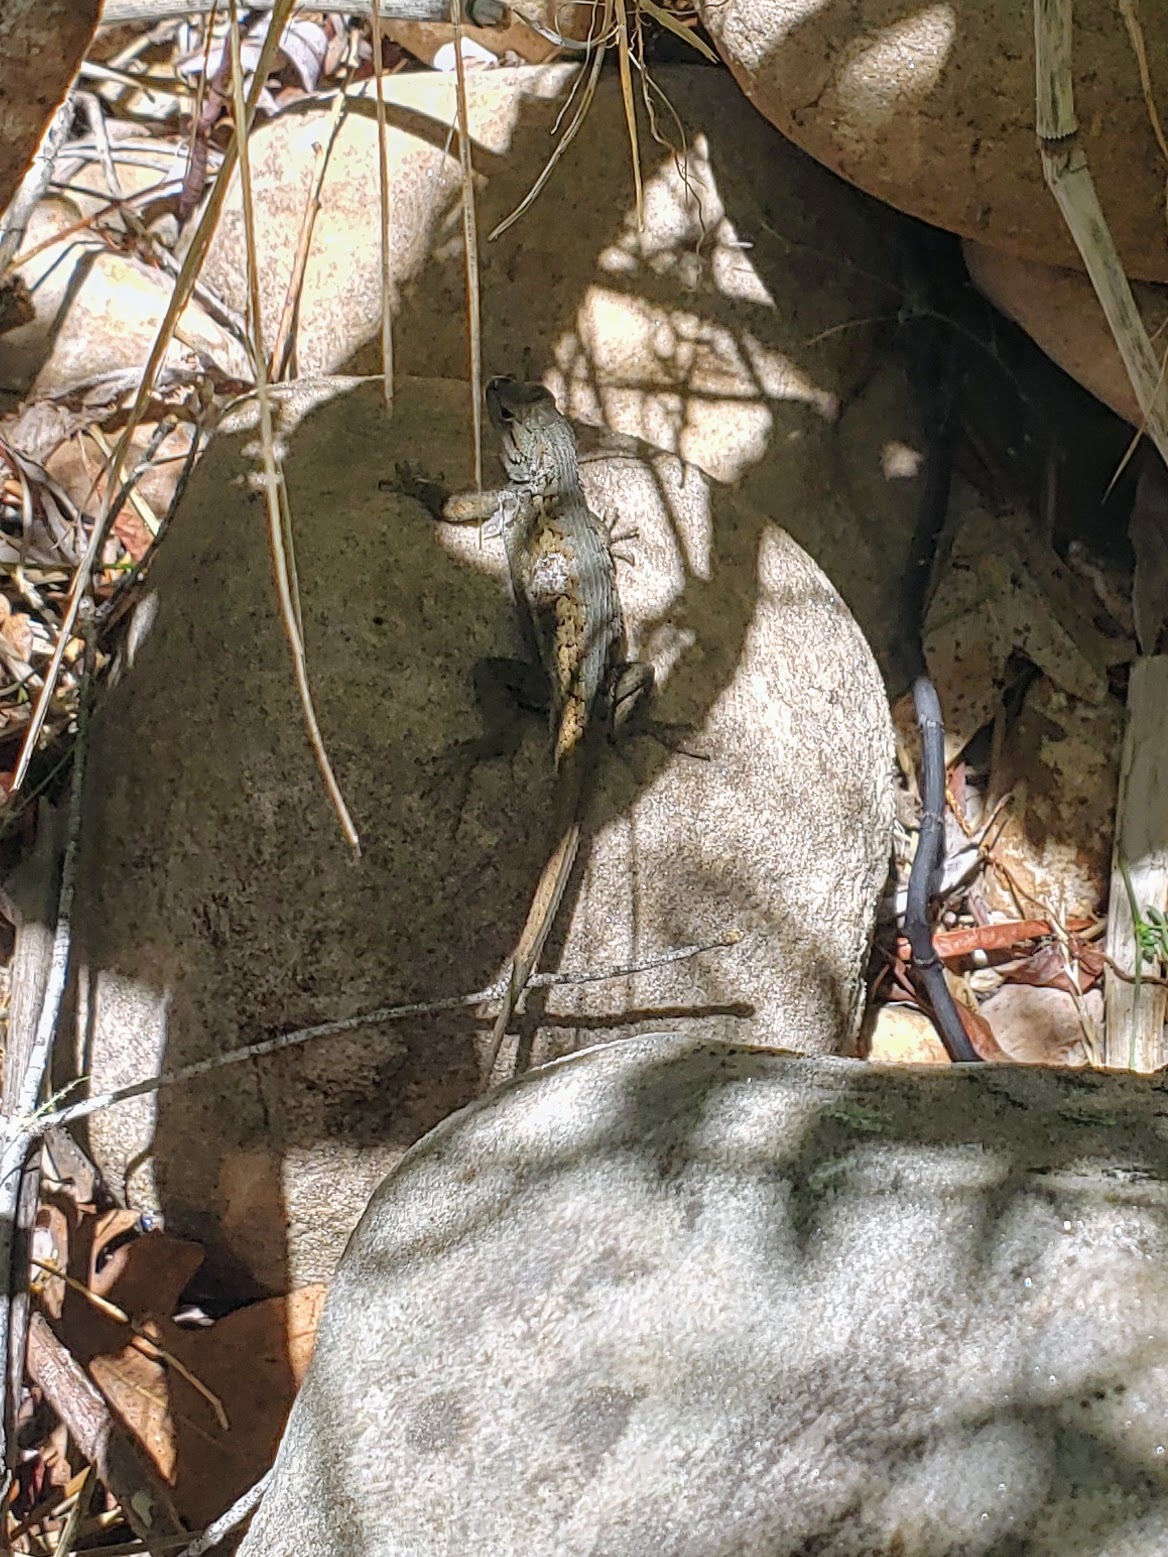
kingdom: Animalia
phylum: Chordata
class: Squamata
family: Phrynosomatidae
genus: Sceloporus
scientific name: Sceloporus tristichus
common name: Plateau fence lizard
